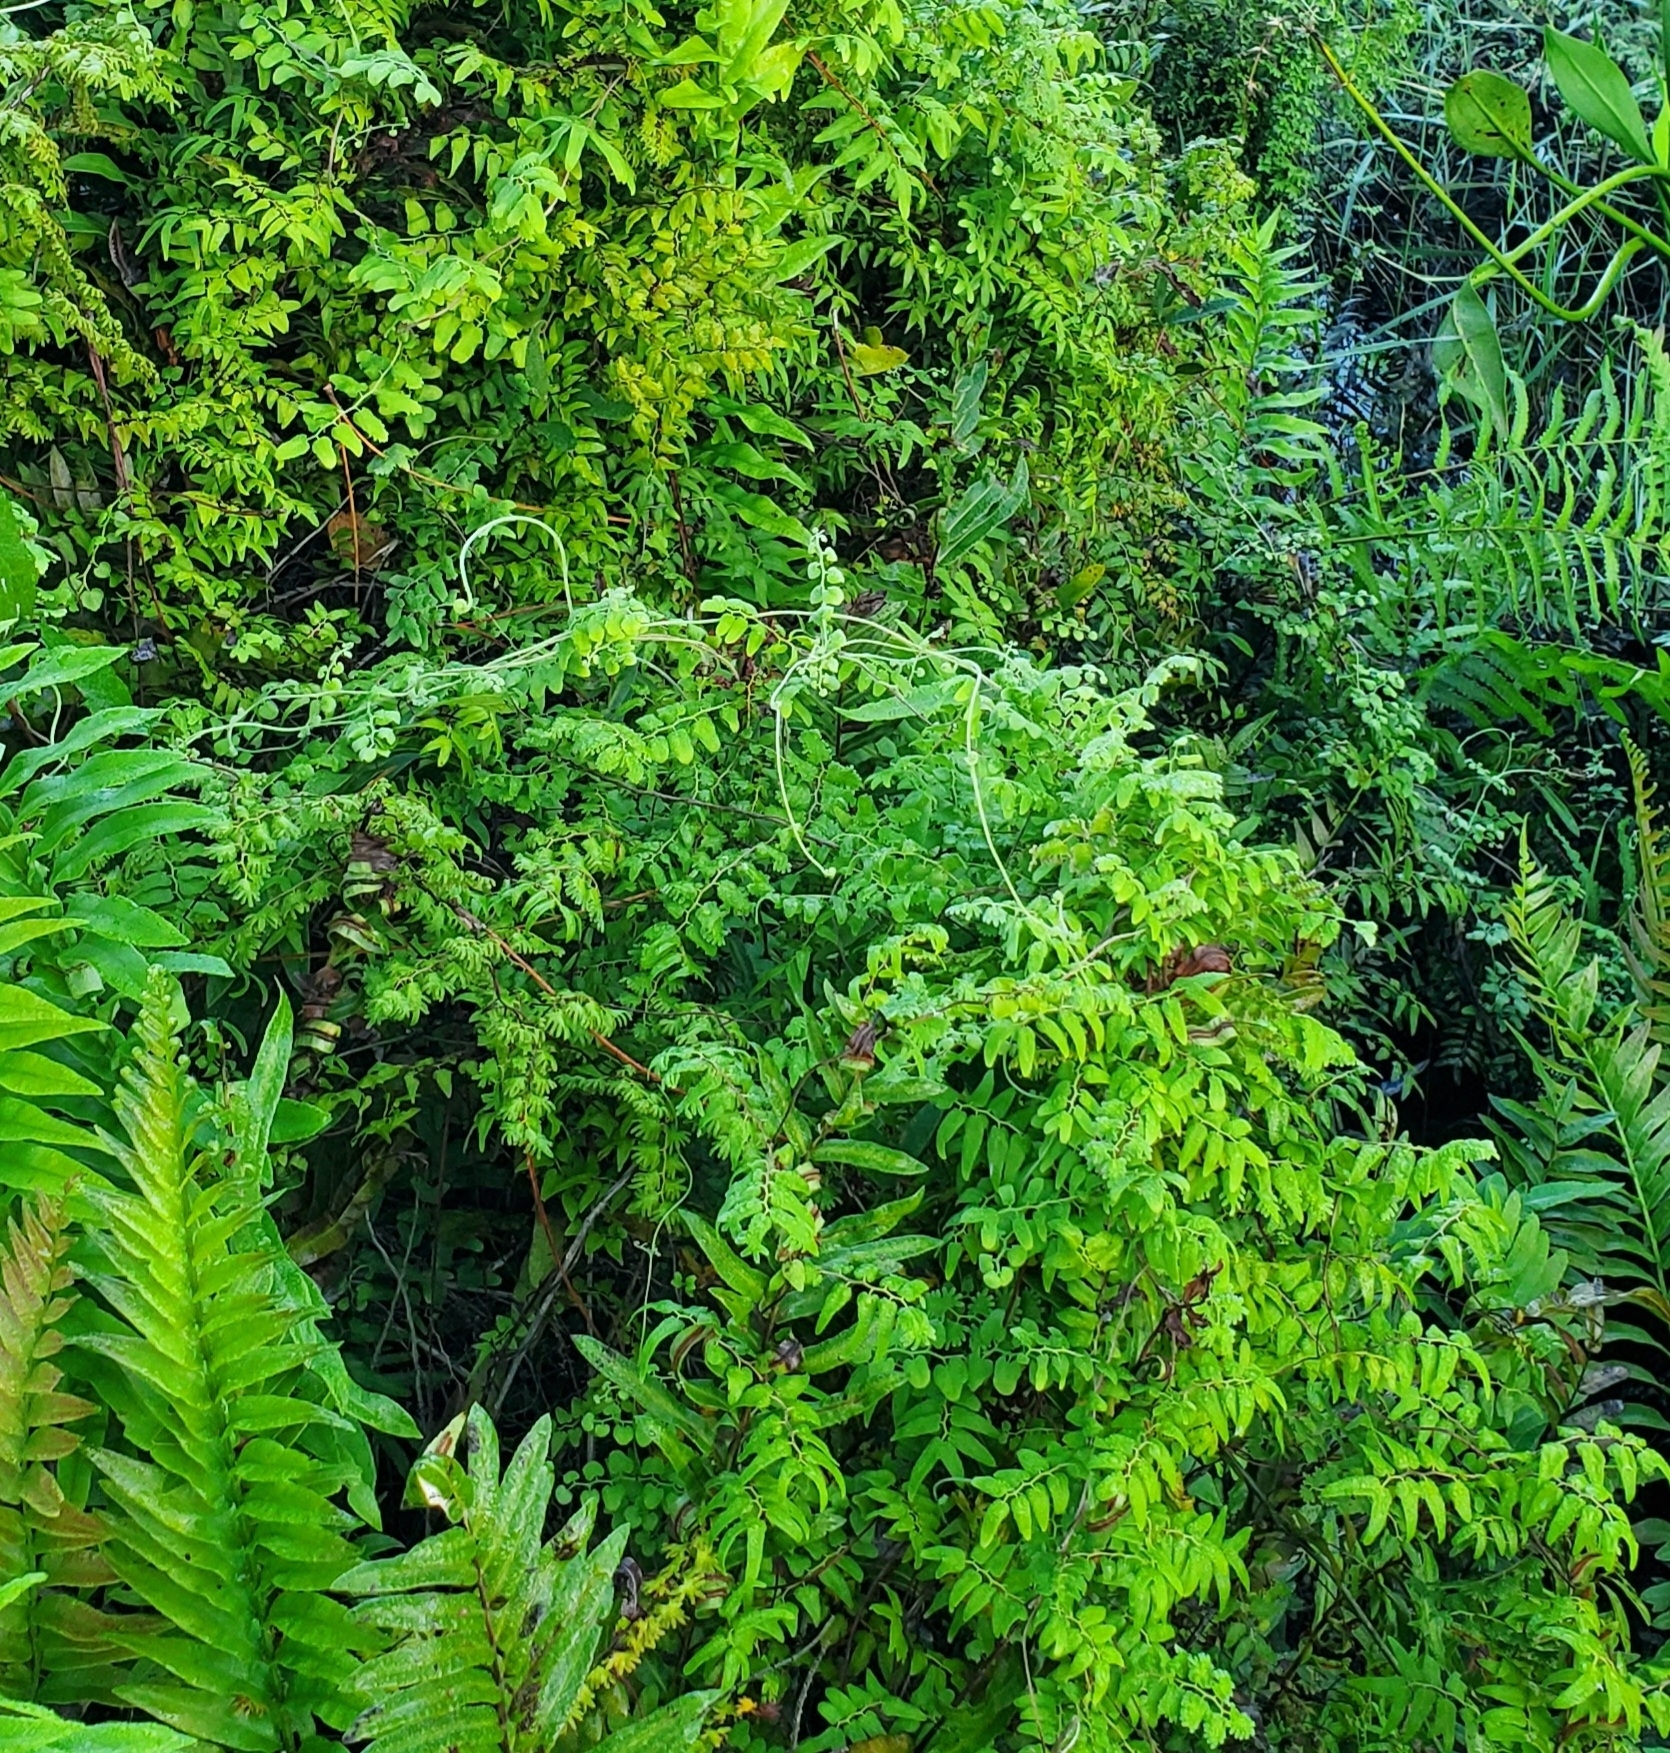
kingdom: Plantae
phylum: Tracheophyta
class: Polypodiopsida
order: Schizaeales
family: Lygodiaceae
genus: Lygodium
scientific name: Lygodium microphyllum
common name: Small-leaf climbing fern
